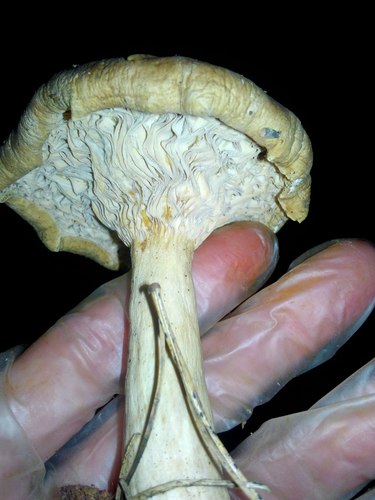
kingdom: Fungi
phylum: Basidiomycota
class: Agaricomycetes
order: Agaricales
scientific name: Agaricales
